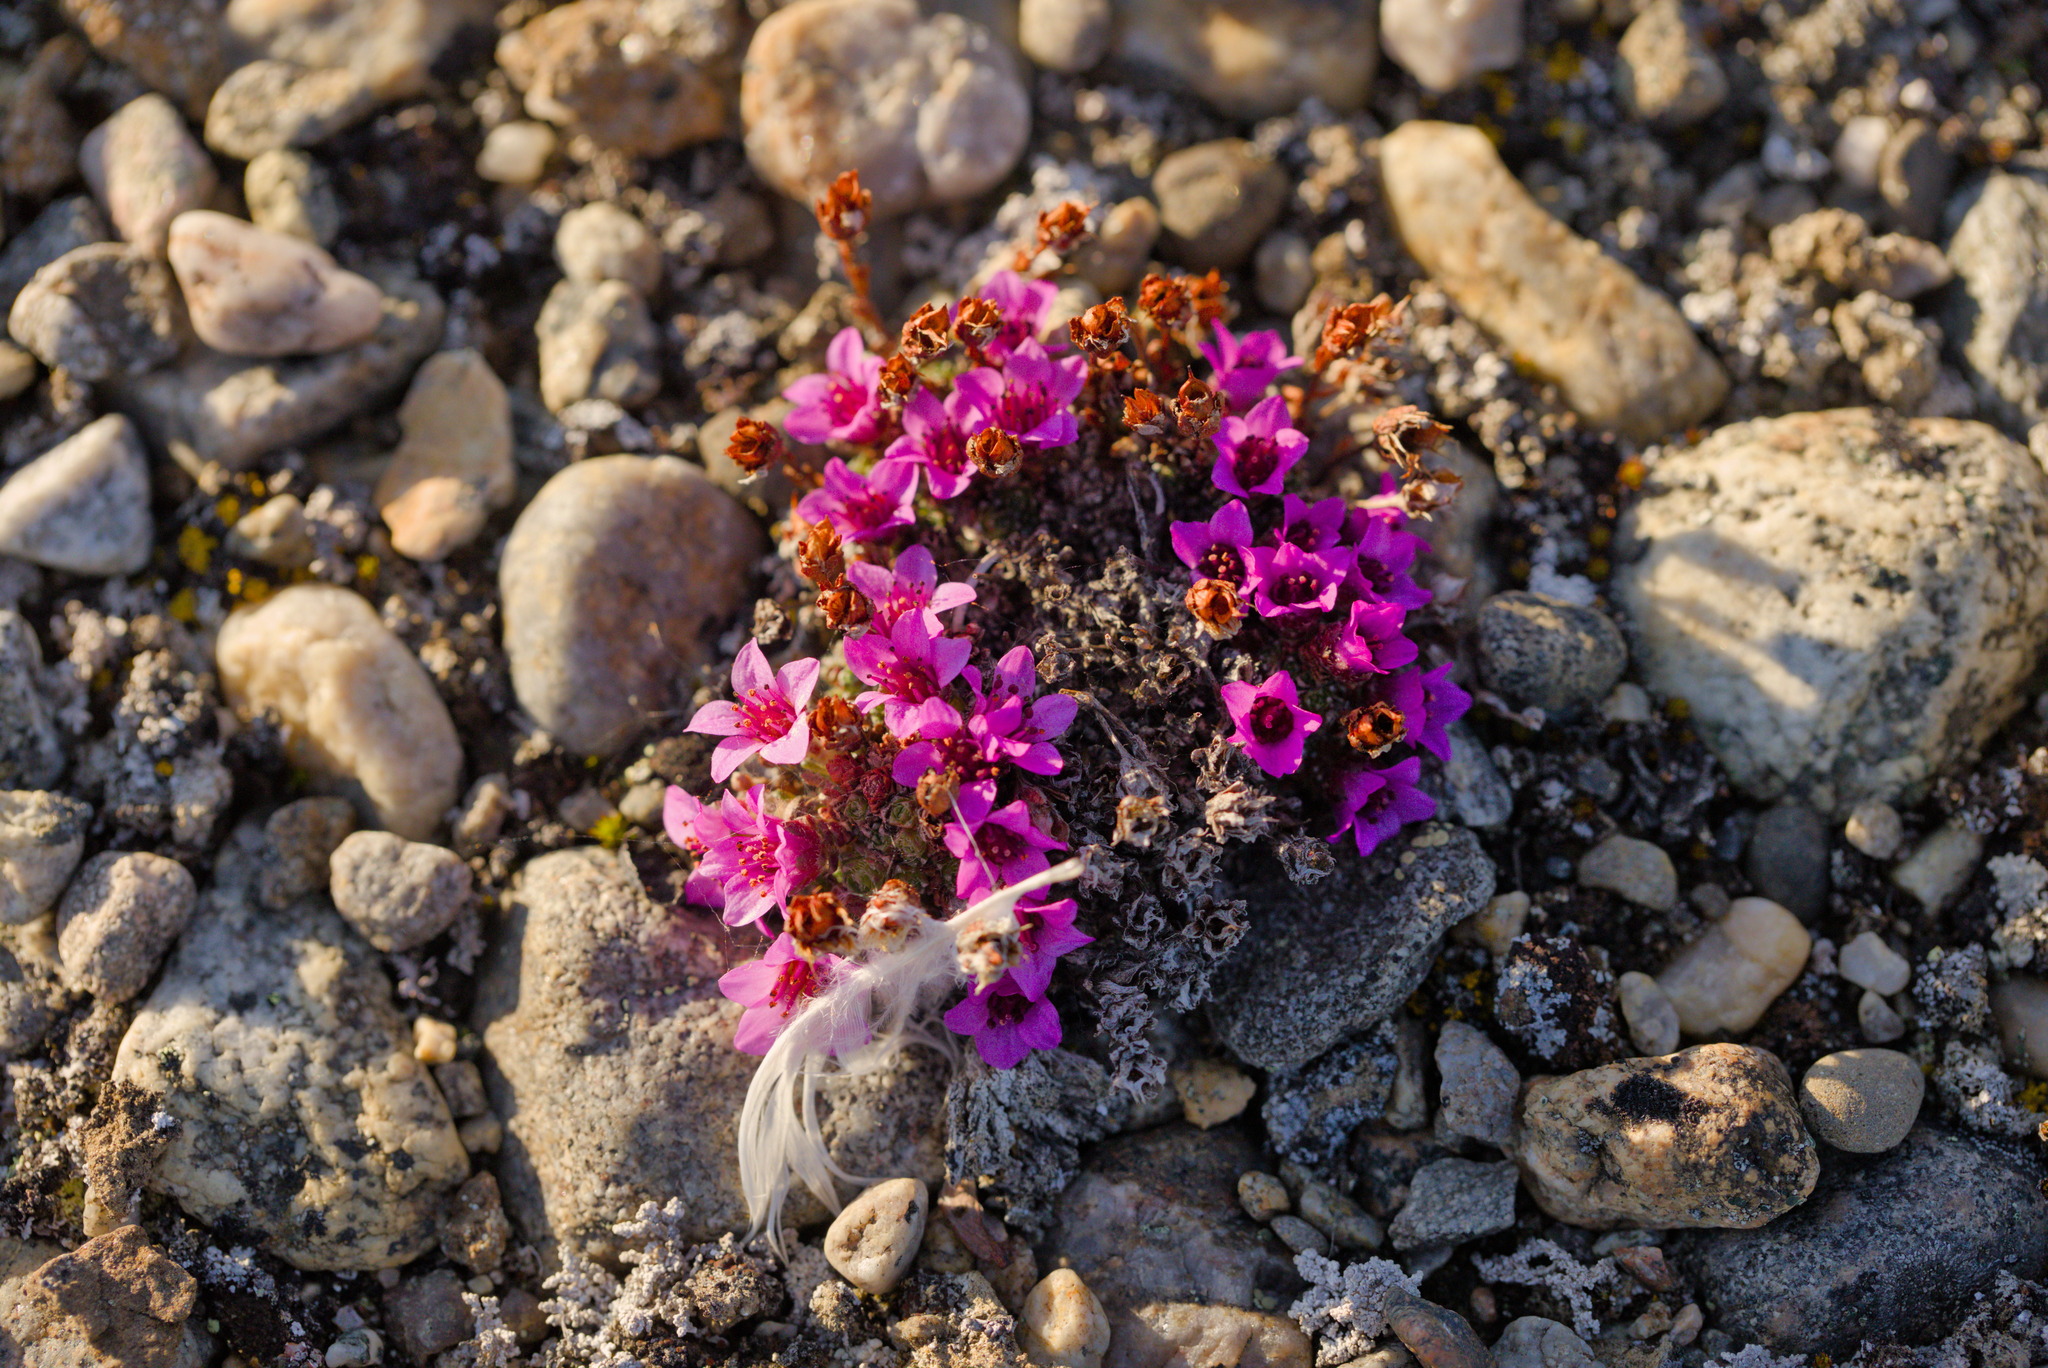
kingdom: Plantae
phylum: Tracheophyta
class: Magnoliopsida
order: Saxifragales
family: Saxifragaceae
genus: Saxifraga
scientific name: Saxifraga oppositifolia
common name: Purple saxifrage
